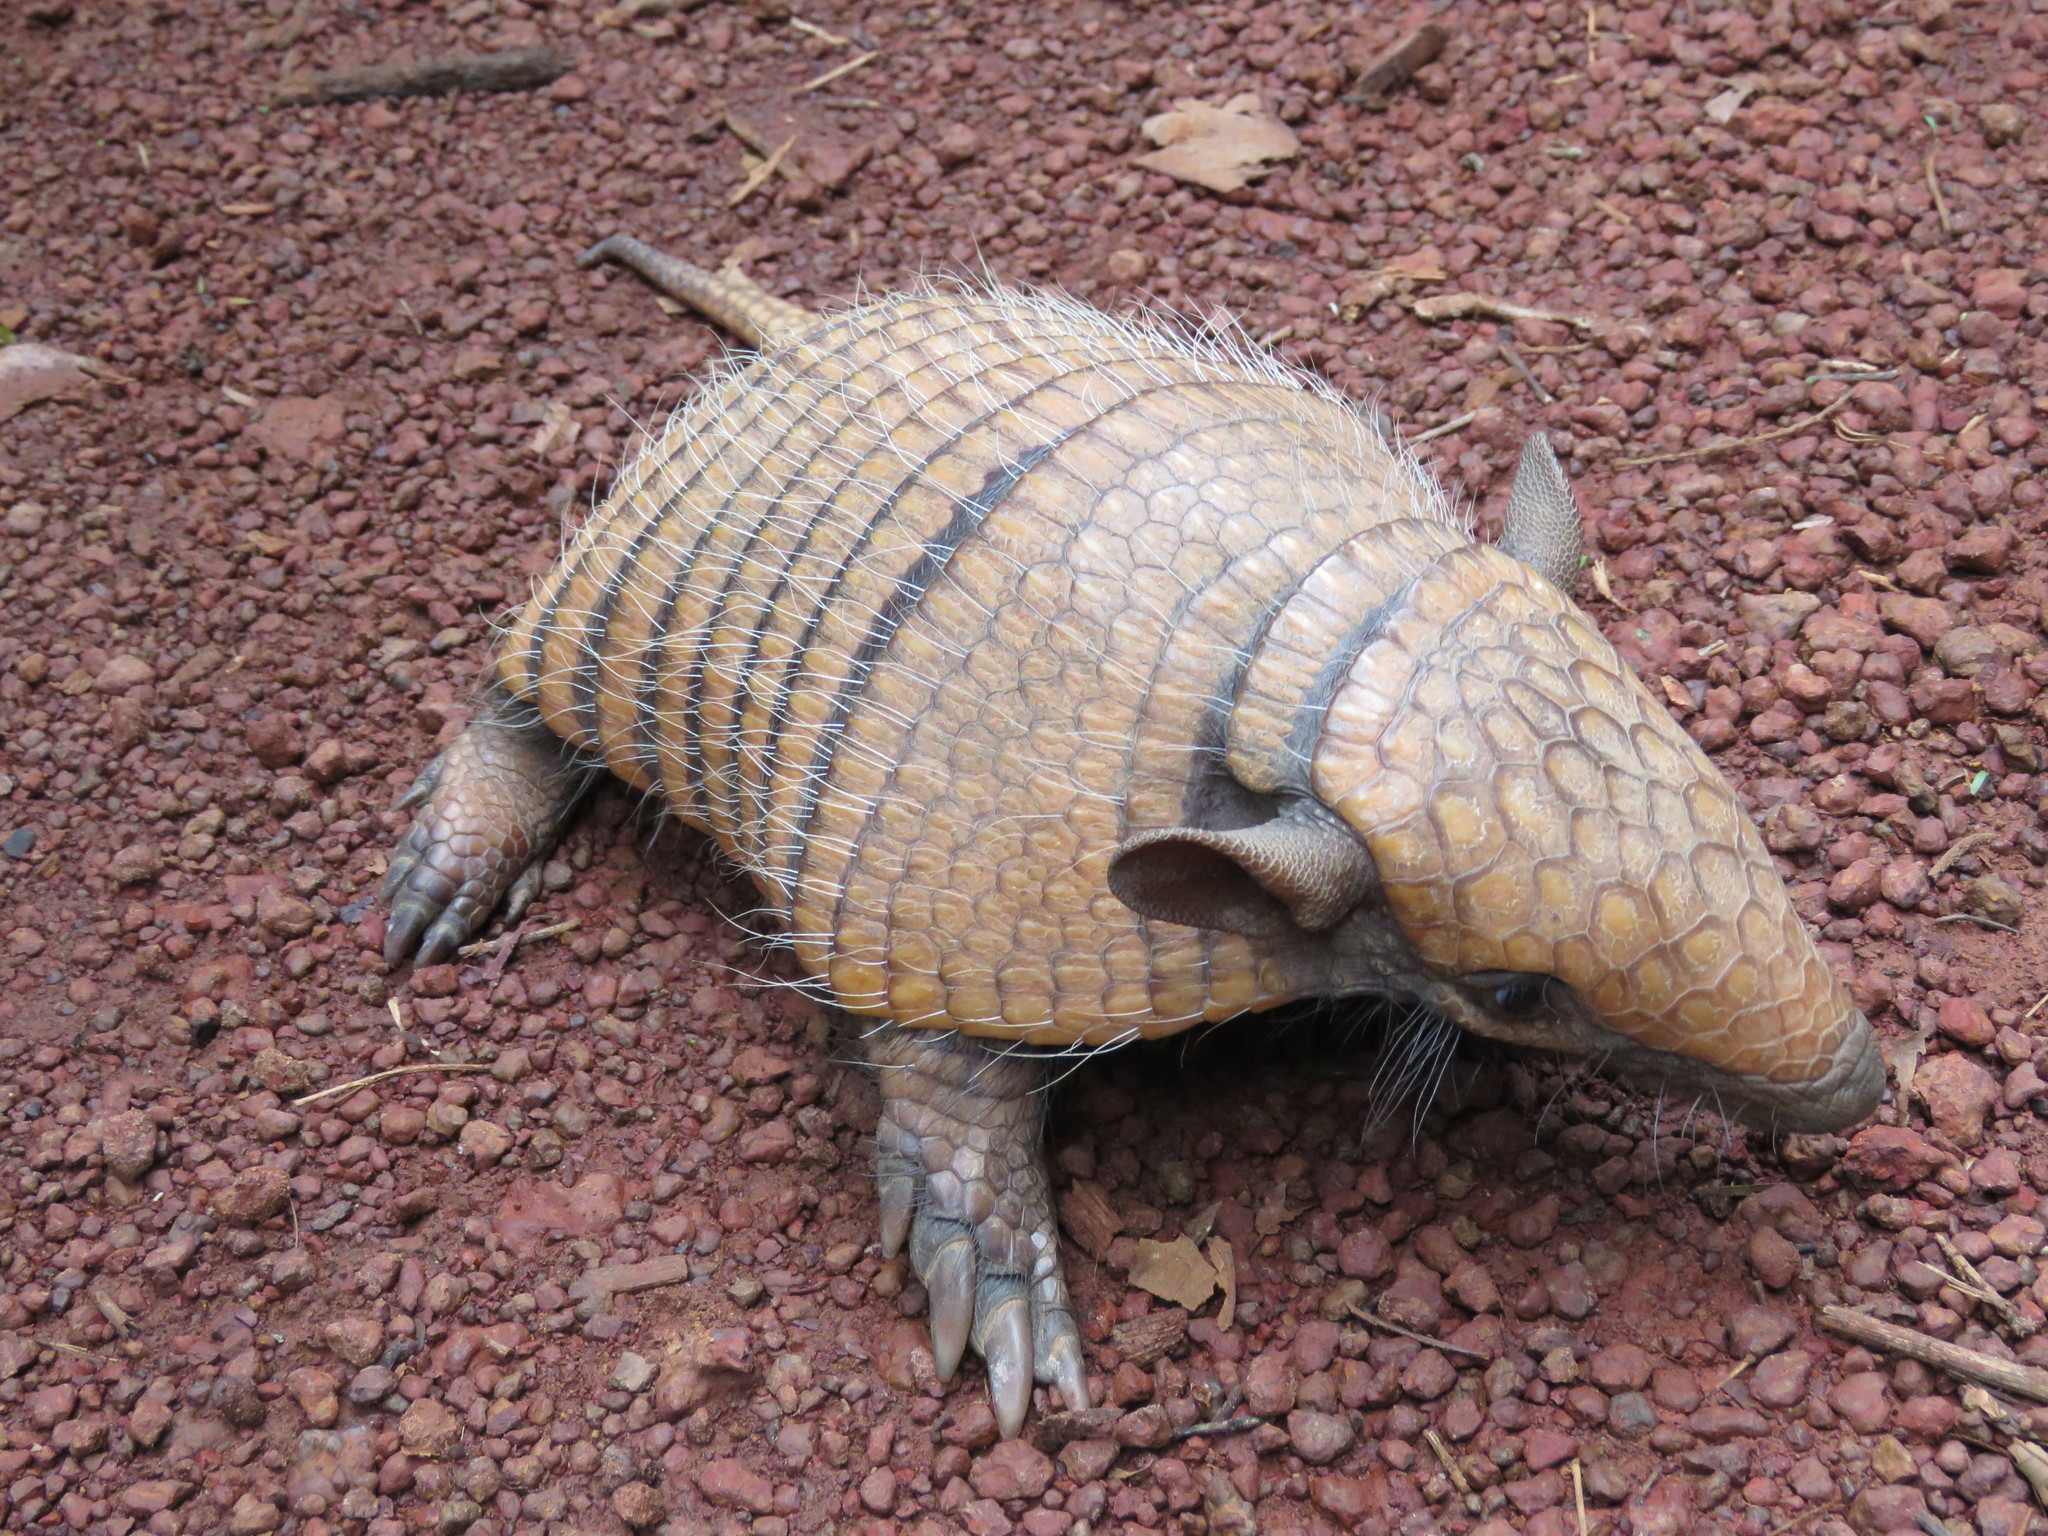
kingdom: Animalia
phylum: Chordata
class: Mammalia
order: Cingulata
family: Dasypodidae
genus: Euphractus
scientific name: Euphractus sexcinctus
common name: Six-banded armadillo
